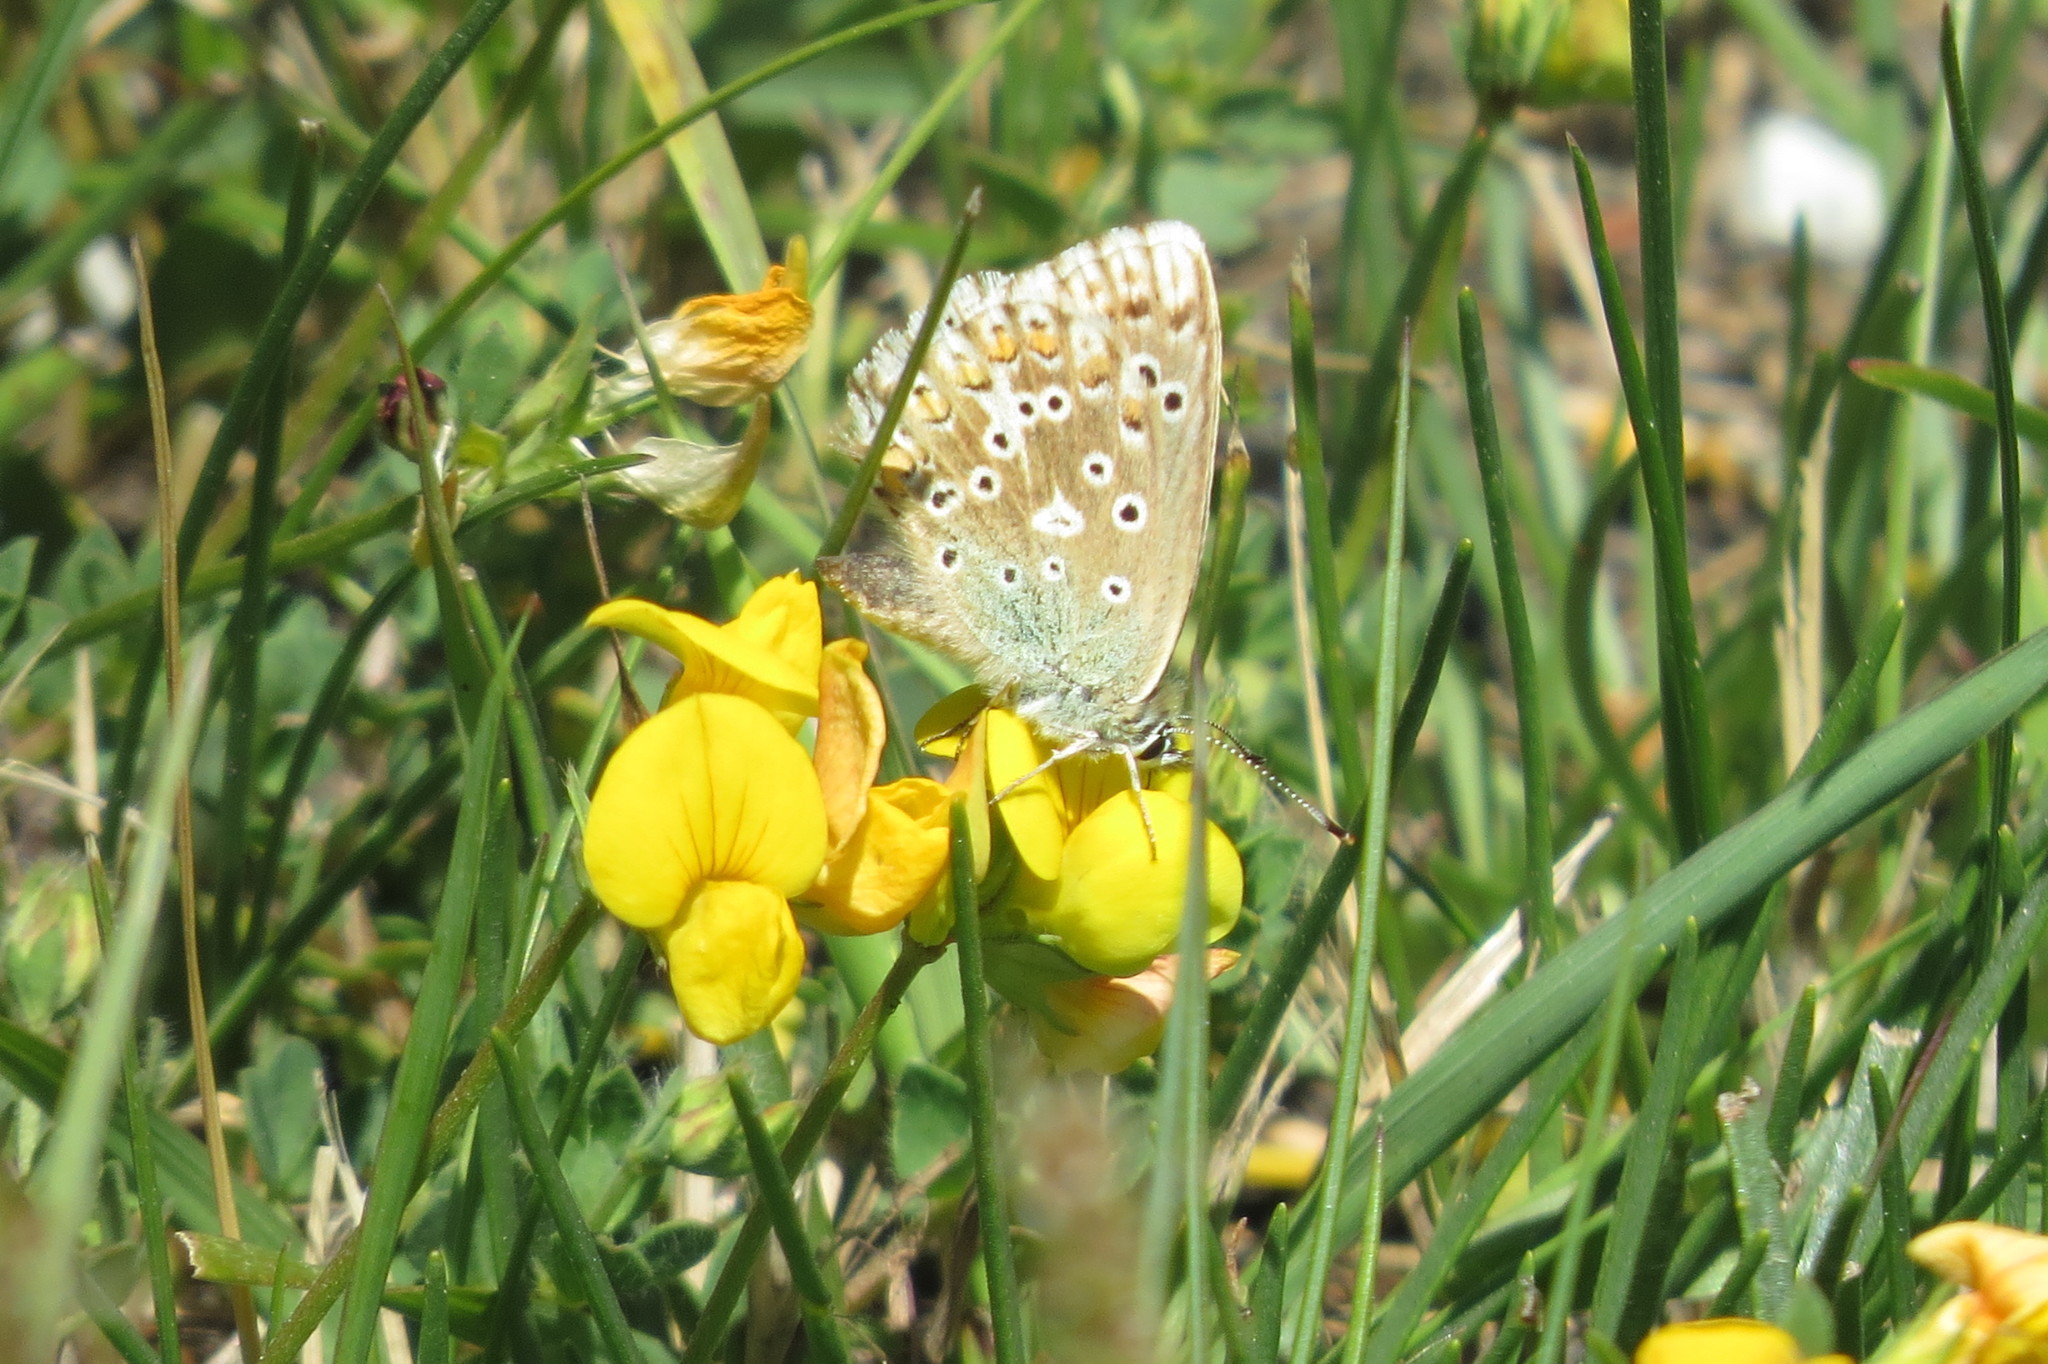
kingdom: Animalia
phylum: Arthropoda
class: Insecta
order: Lepidoptera
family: Lycaenidae
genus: Lysandra
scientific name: Lysandra coridon
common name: Chalkhill blue
